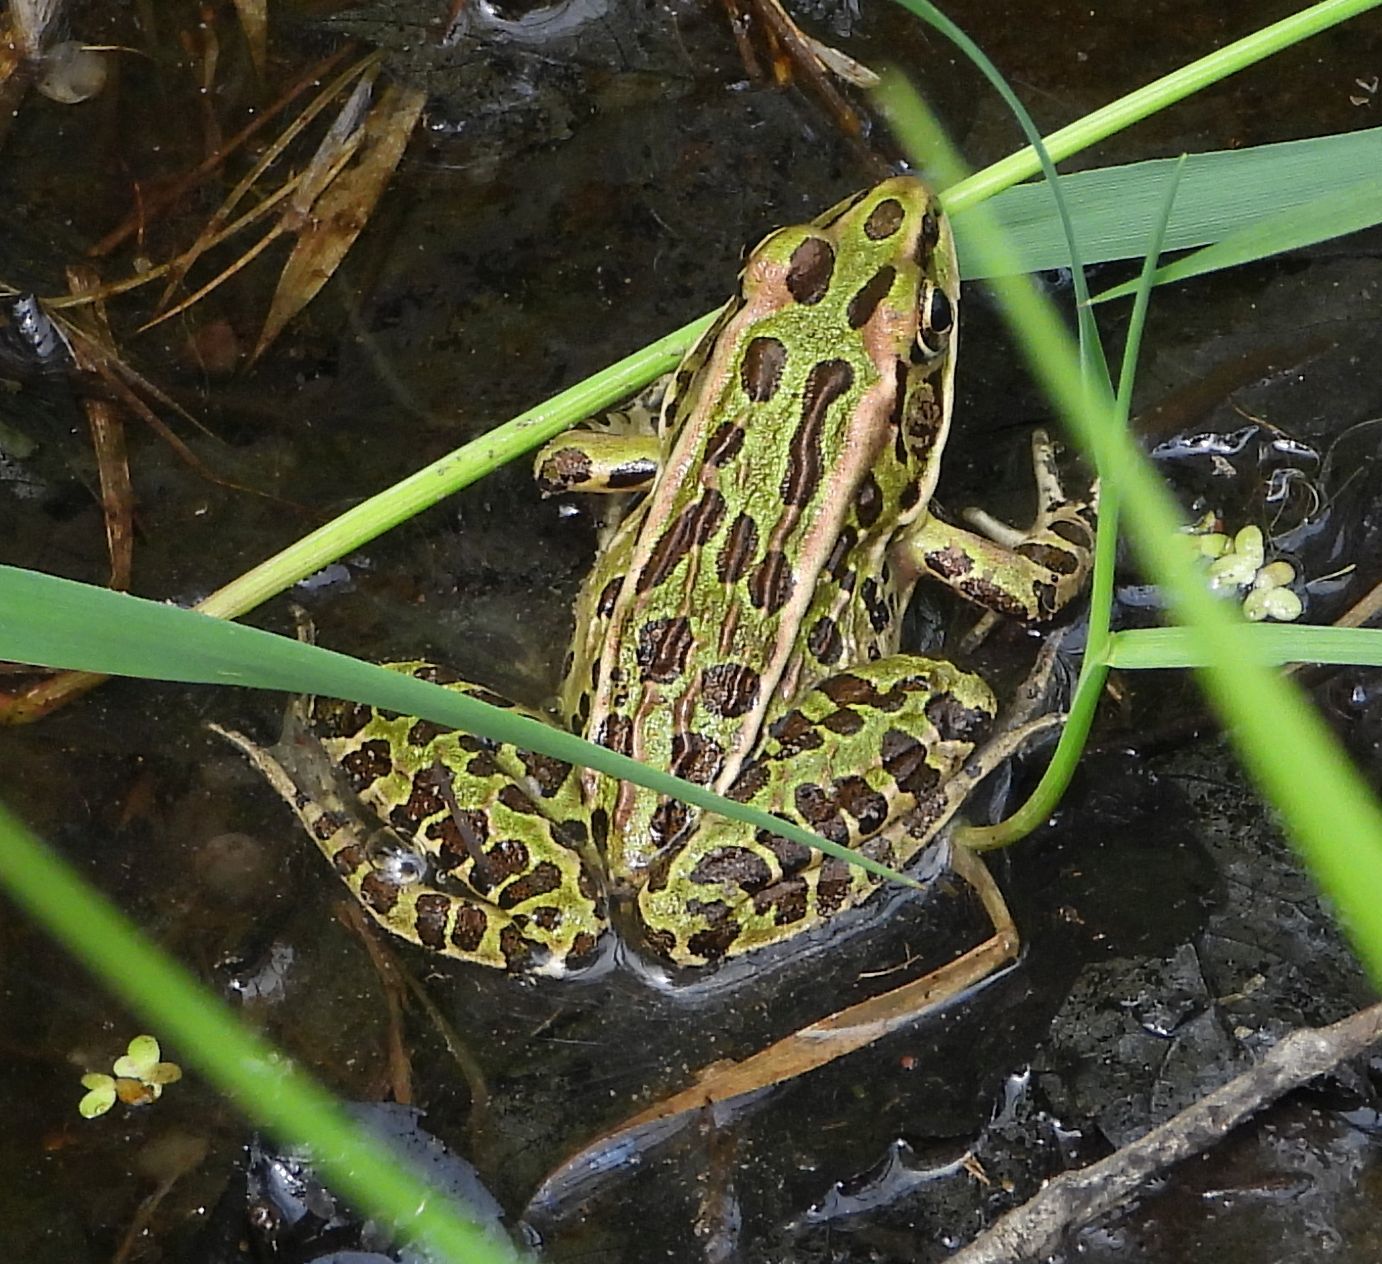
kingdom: Animalia
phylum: Chordata
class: Amphibia
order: Anura
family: Ranidae
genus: Lithobates
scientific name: Lithobates pipiens
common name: Northern leopard frog
